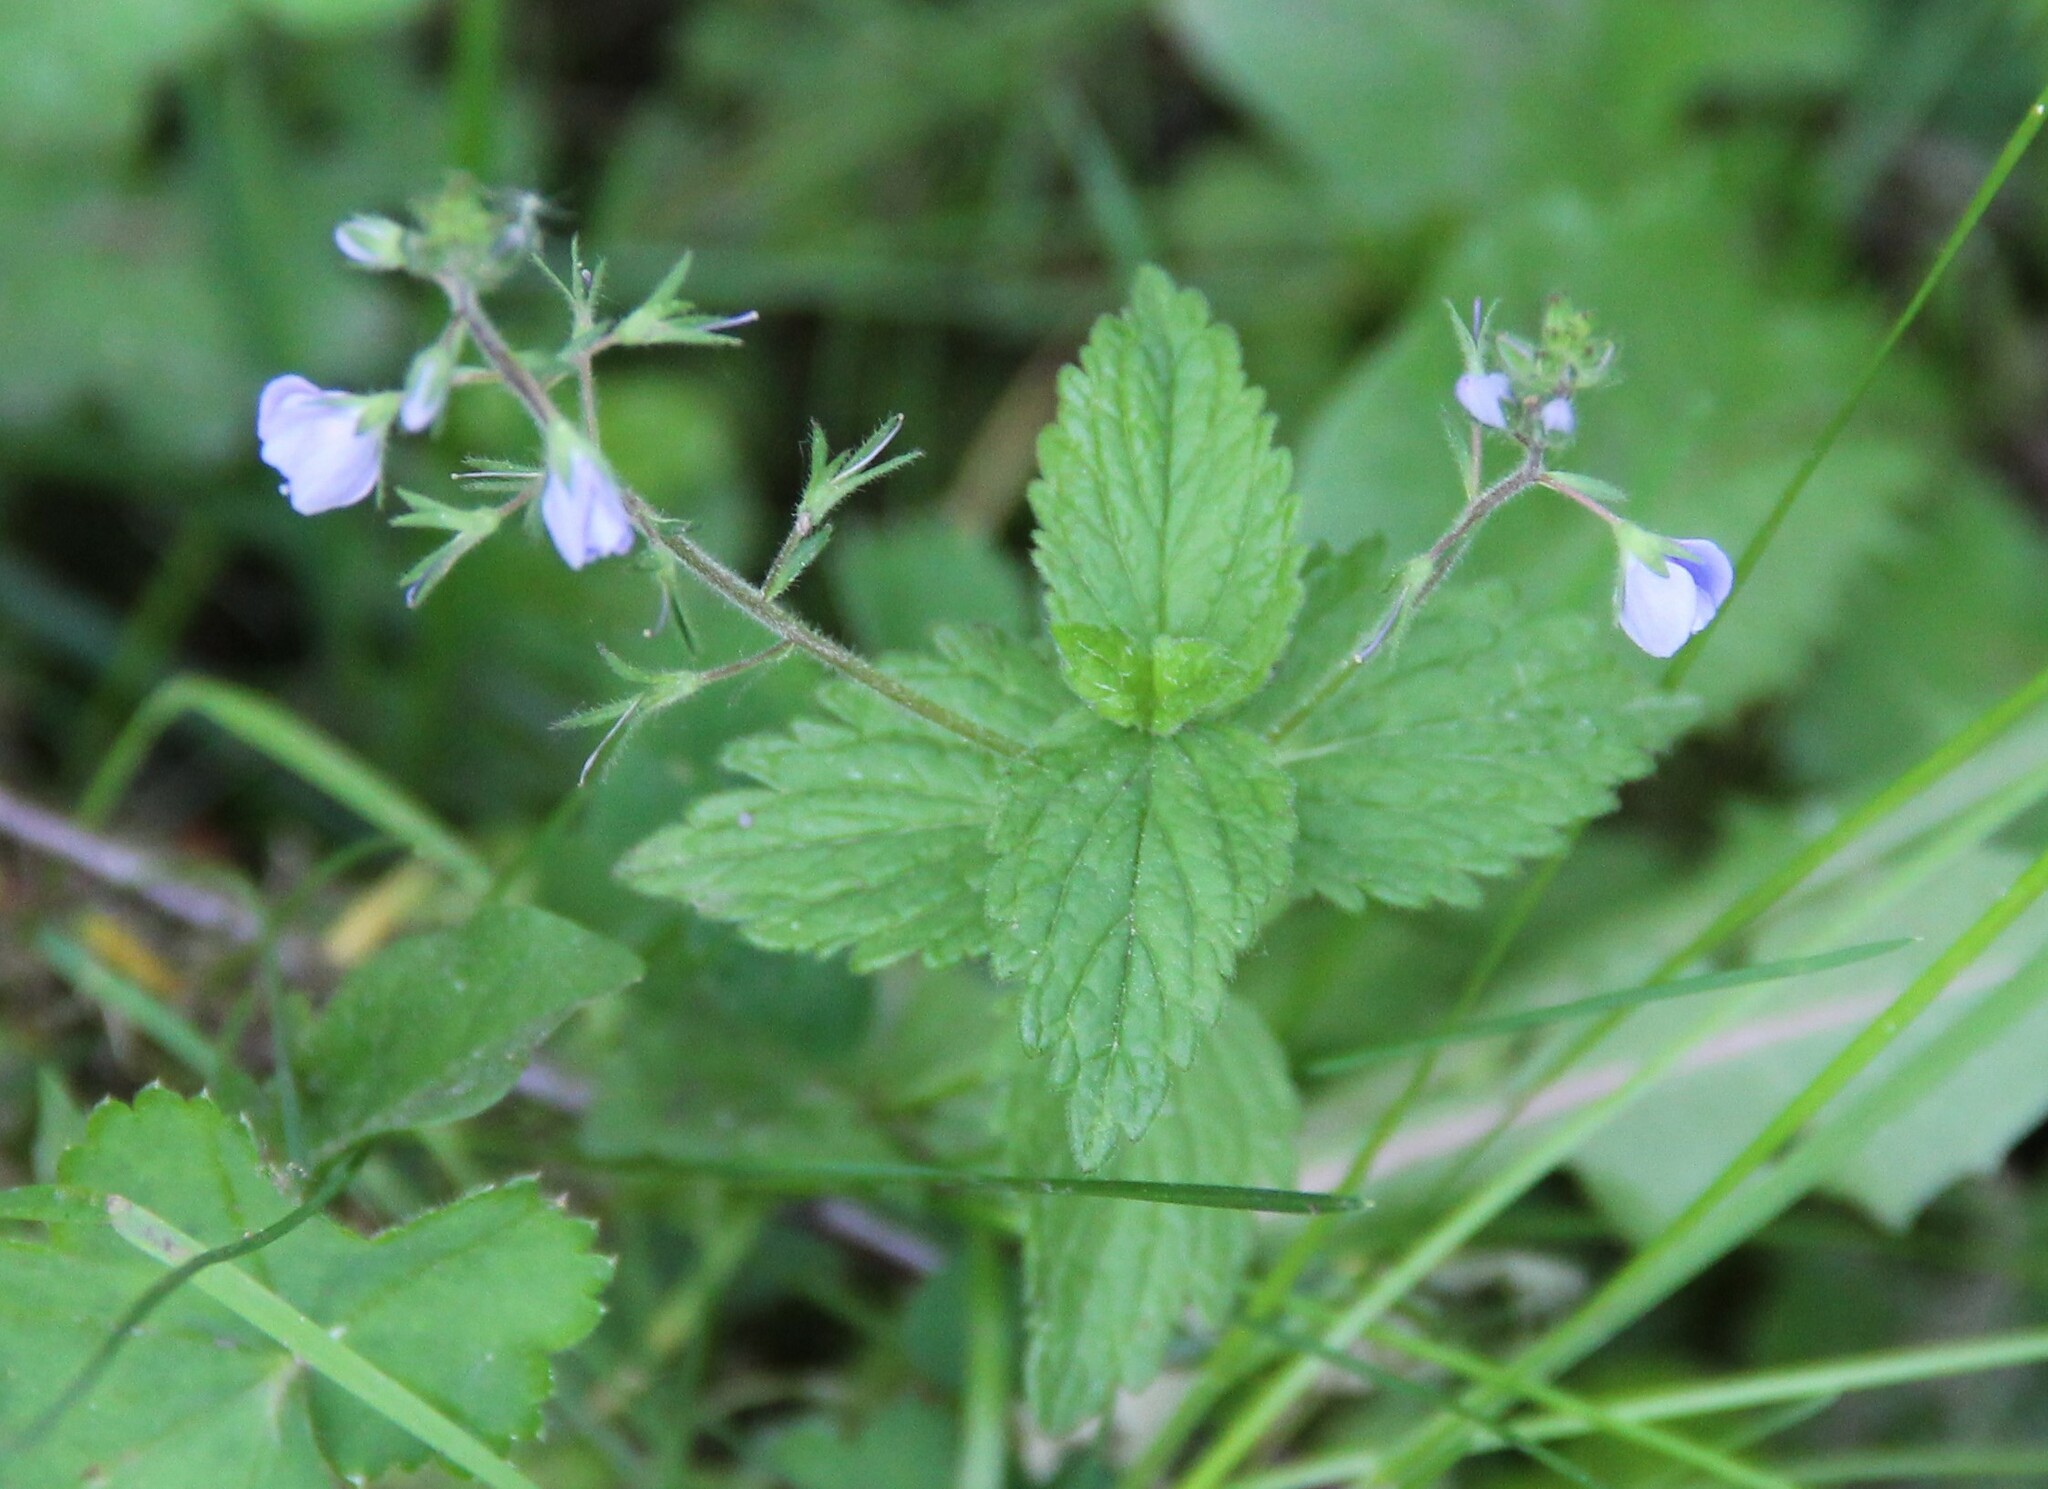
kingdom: Plantae
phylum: Tracheophyta
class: Magnoliopsida
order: Lamiales
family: Plantaginaceae
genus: Veronica
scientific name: Veronica chamaedrys
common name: Germander speedwell
